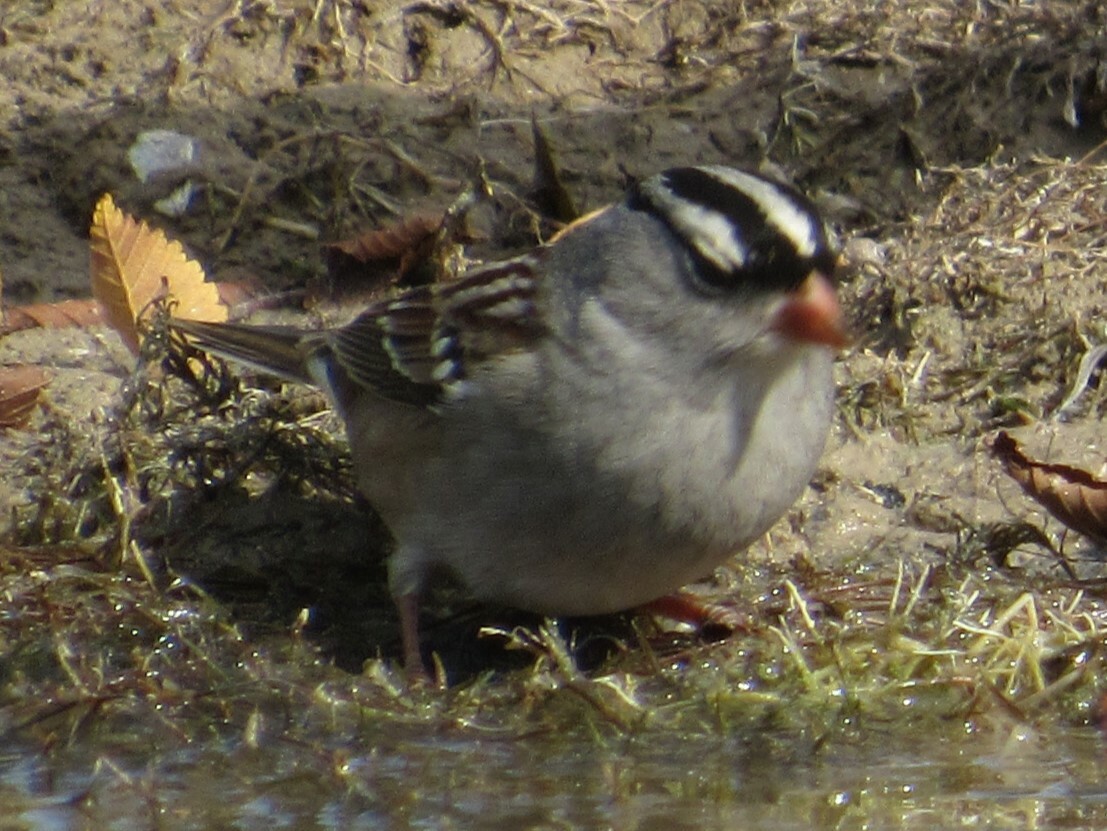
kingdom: Animalia
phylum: Chordata
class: Aves
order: Passeriformes
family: Passerellidae
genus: Zonotrichia
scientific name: Zonotrichia leucophrys
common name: White-crowned sparrow
